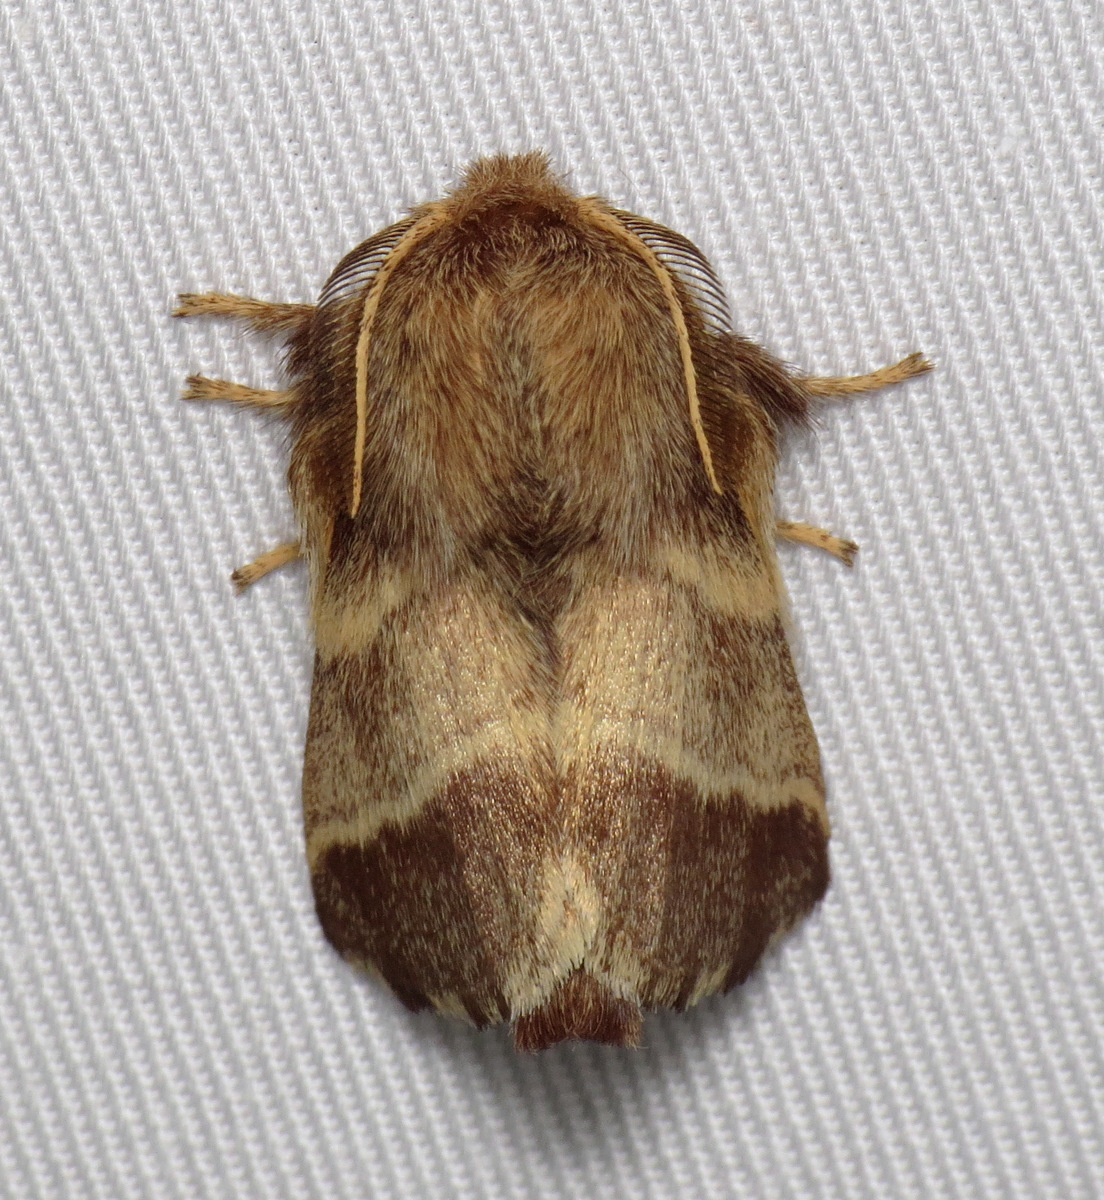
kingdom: Animalia
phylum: Arthropoda
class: Insecta
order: Lepidoptera
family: Lasiocampidae
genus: Malacosoma
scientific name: Malacosoma americana
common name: Eastern tent caterpillar moth
